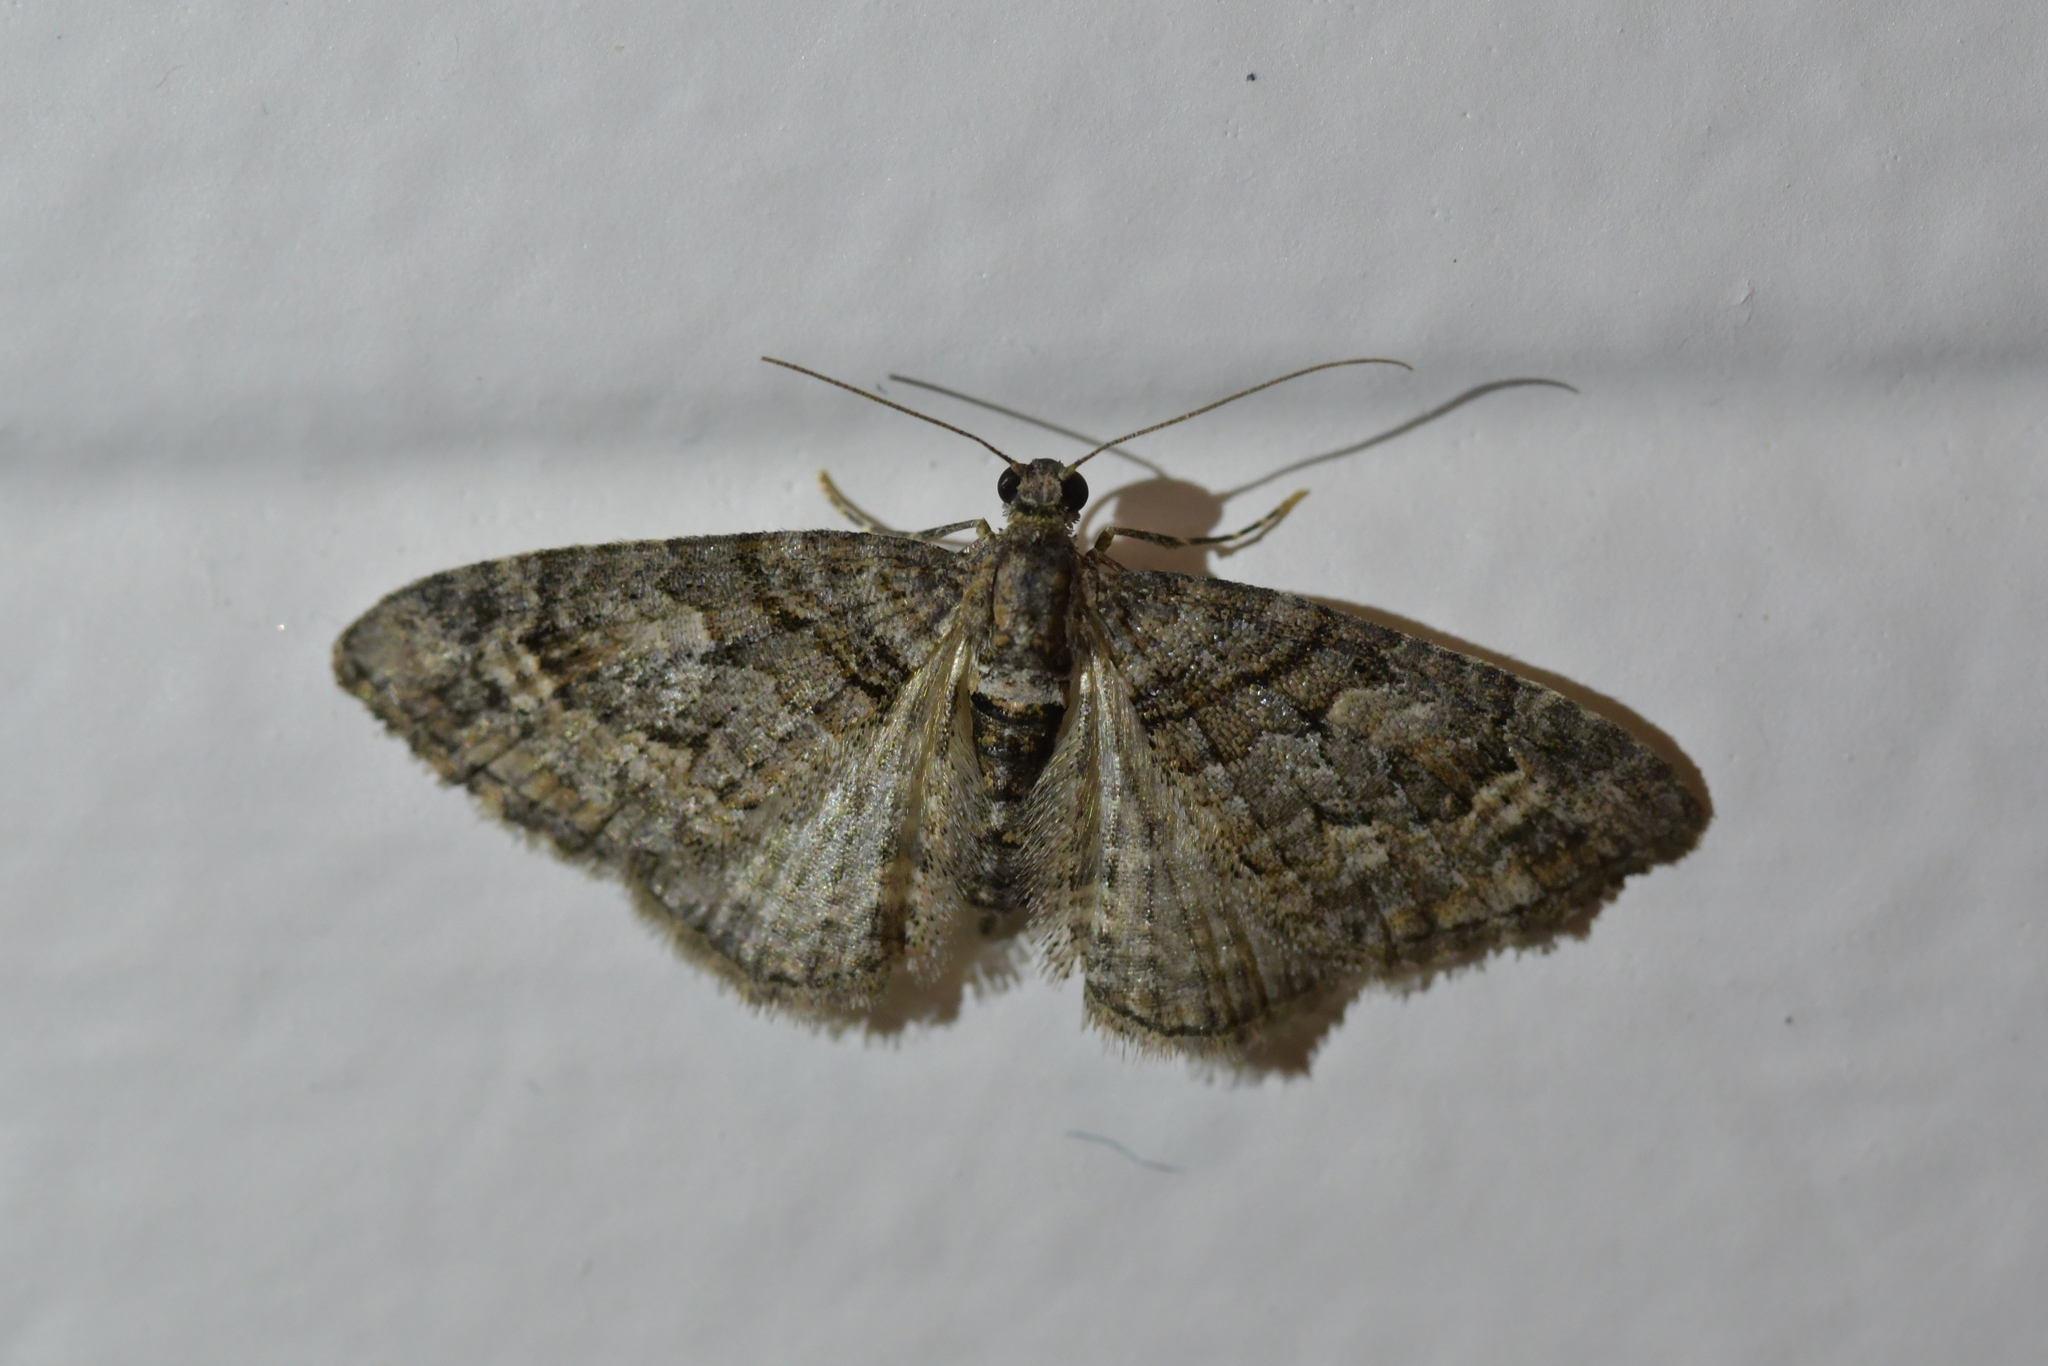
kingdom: Animalia
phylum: Arthropoda
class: Insecta
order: Lepidoptera
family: Geometridae
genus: Phrissogonus
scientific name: Phrissogonus laticostata
